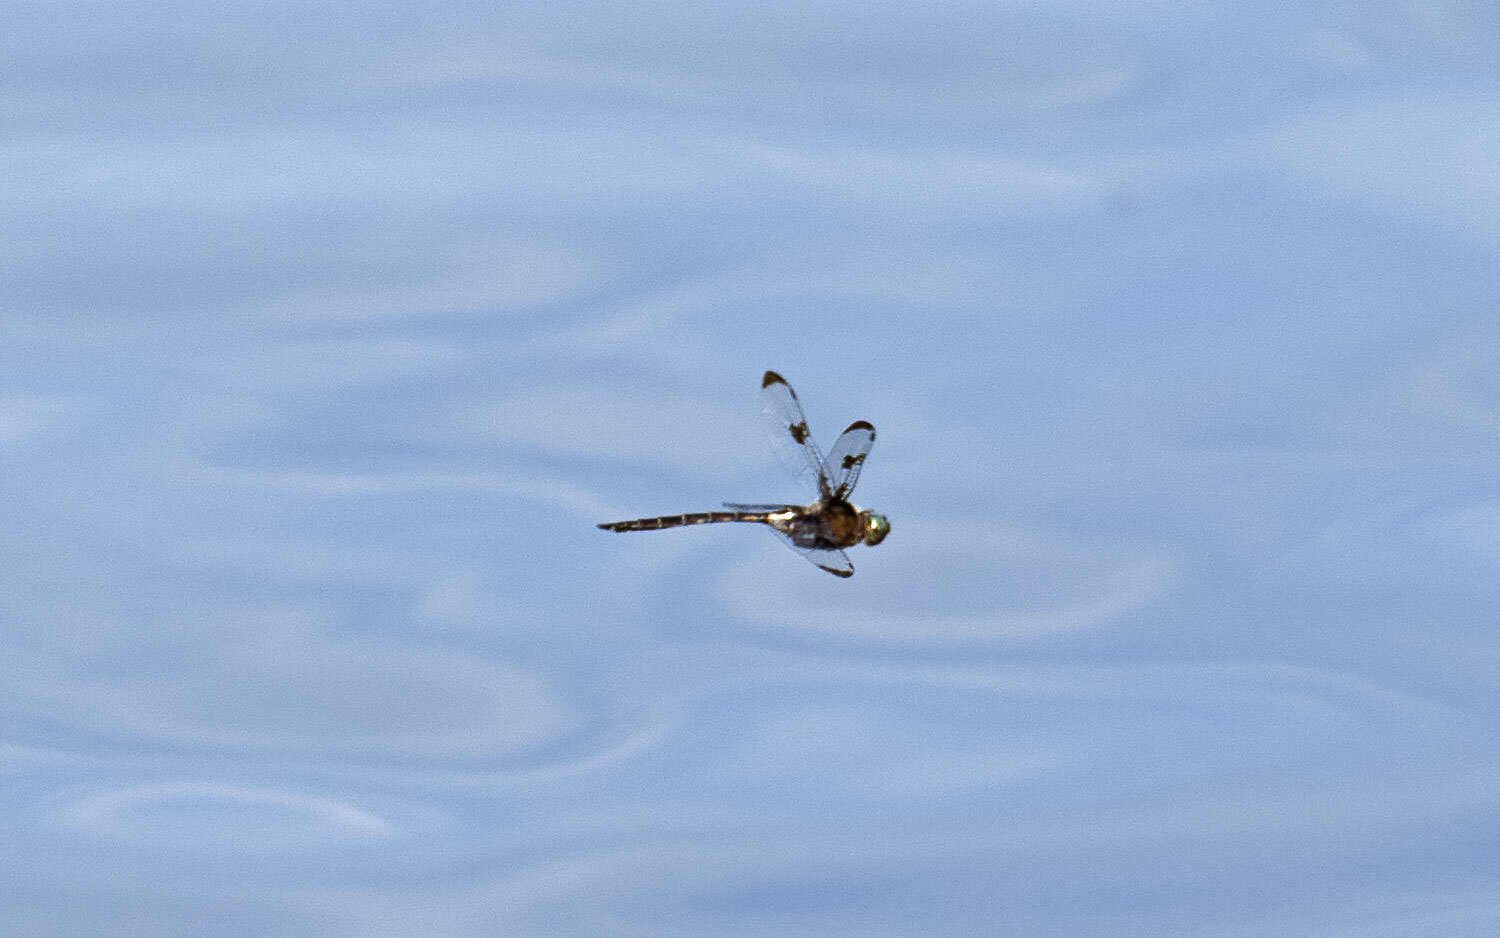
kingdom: Animalia
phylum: Arthropoda
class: Insecta
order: Odonata
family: Corduliidae
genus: Epitheca
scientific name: Epitheca princeps
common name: Prince baskettail
